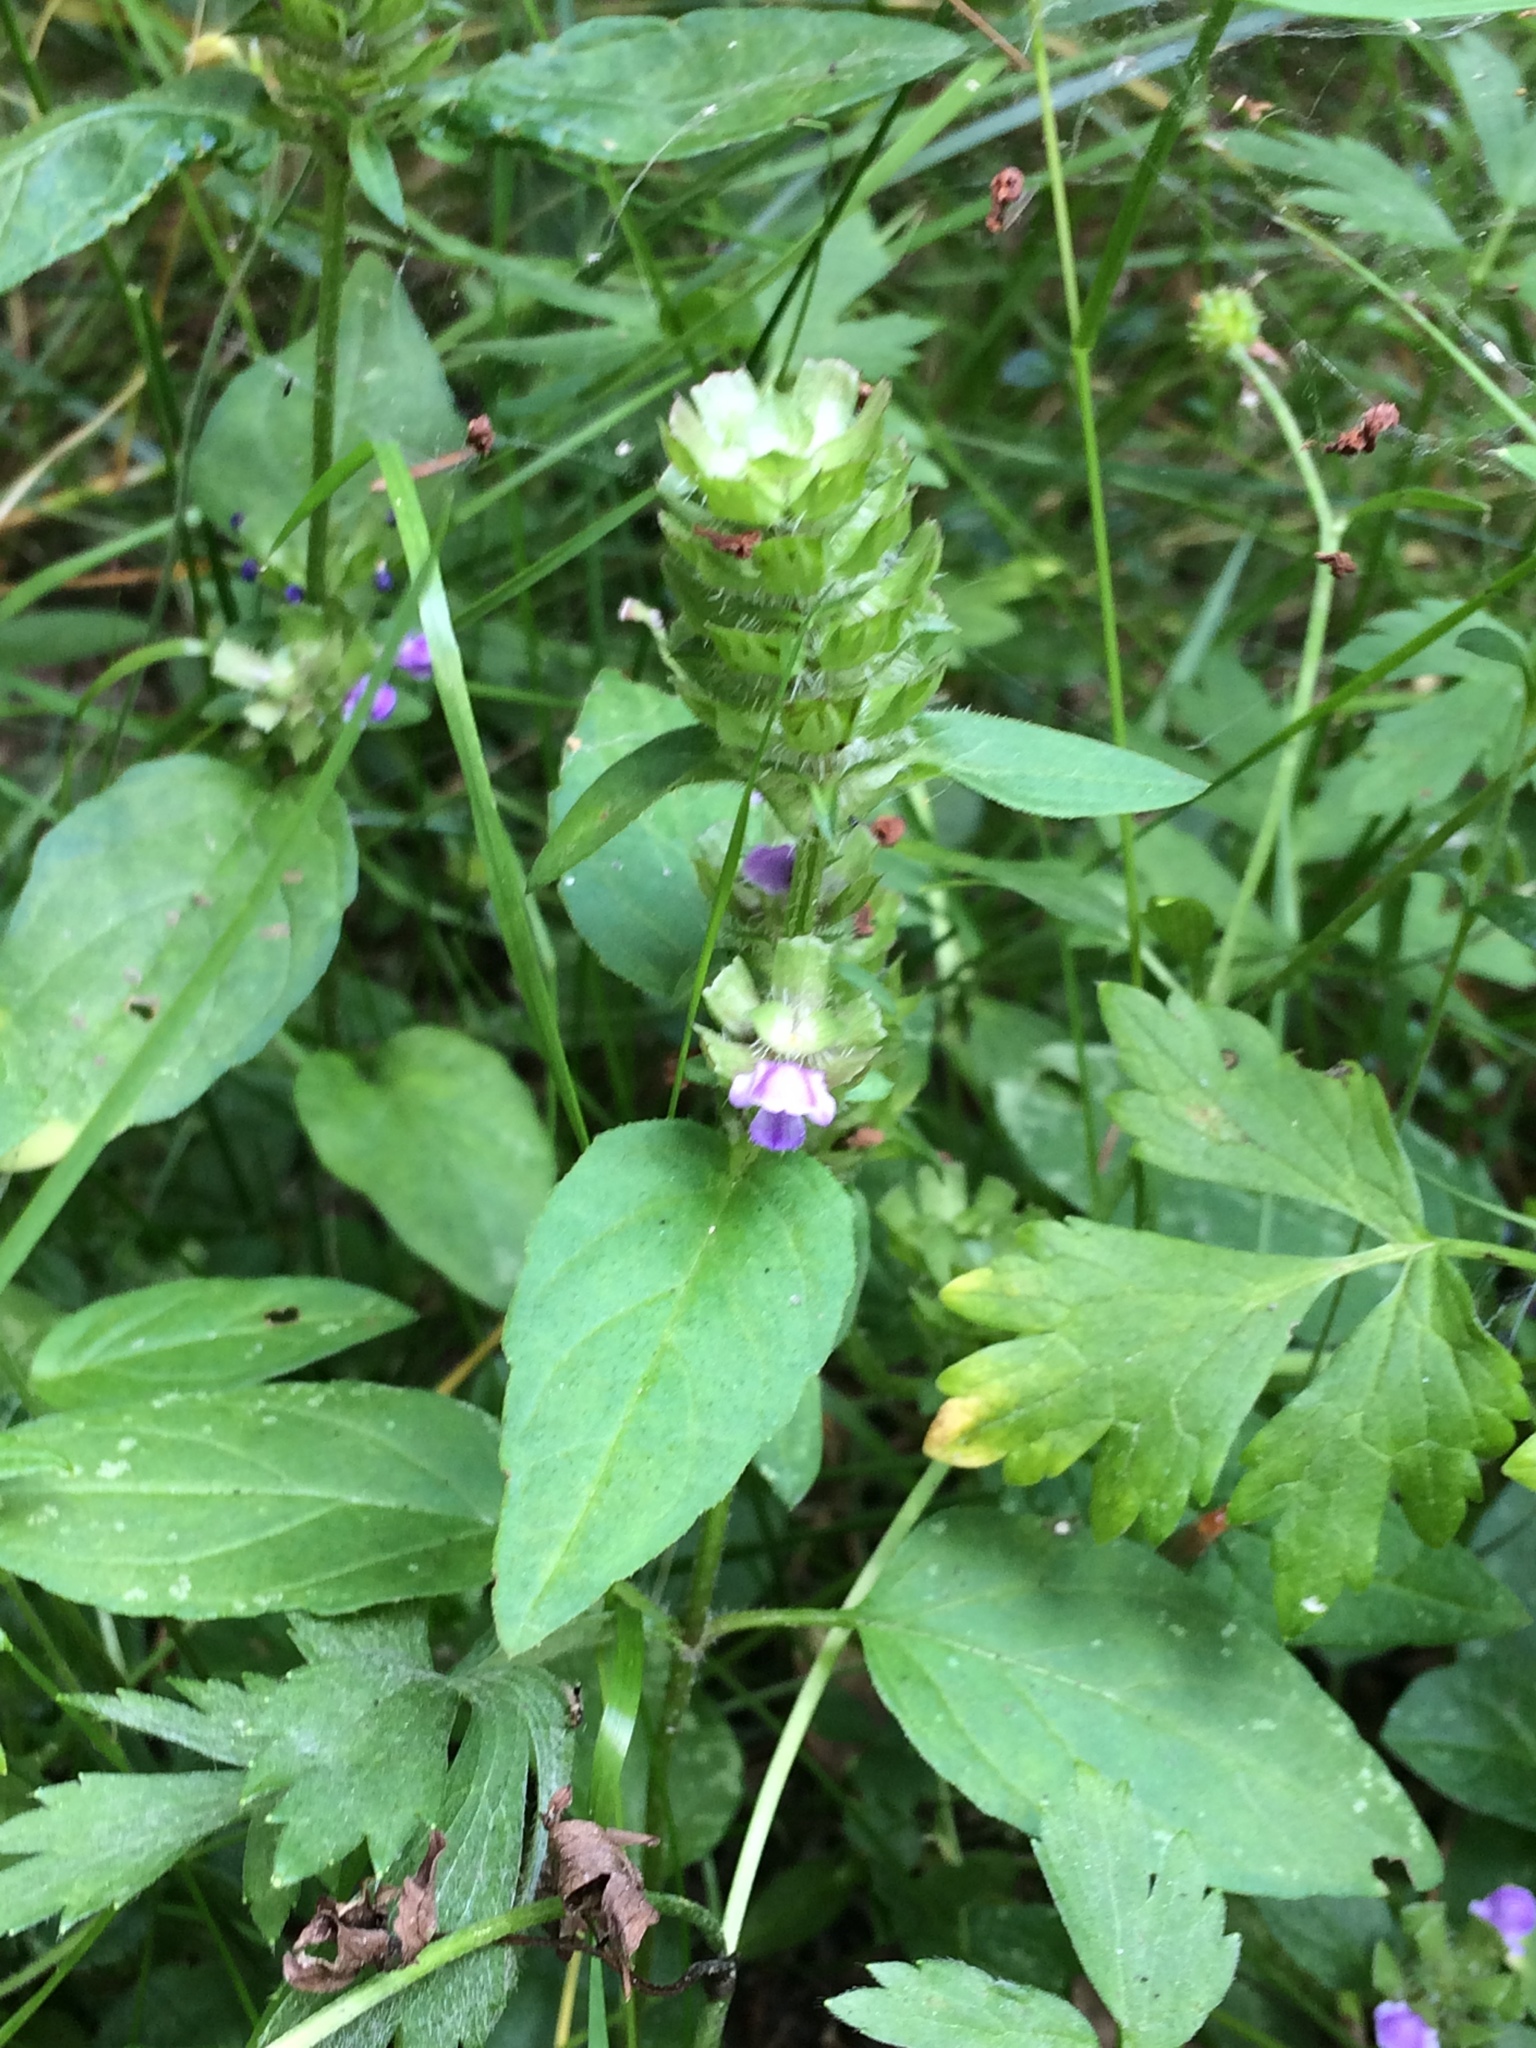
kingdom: Plantae
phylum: Tracheophyta
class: Magnoliopsida
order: Lamiales
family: Lamiaceae
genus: Prunella
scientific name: Prunella vulgaris
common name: Heal-all
